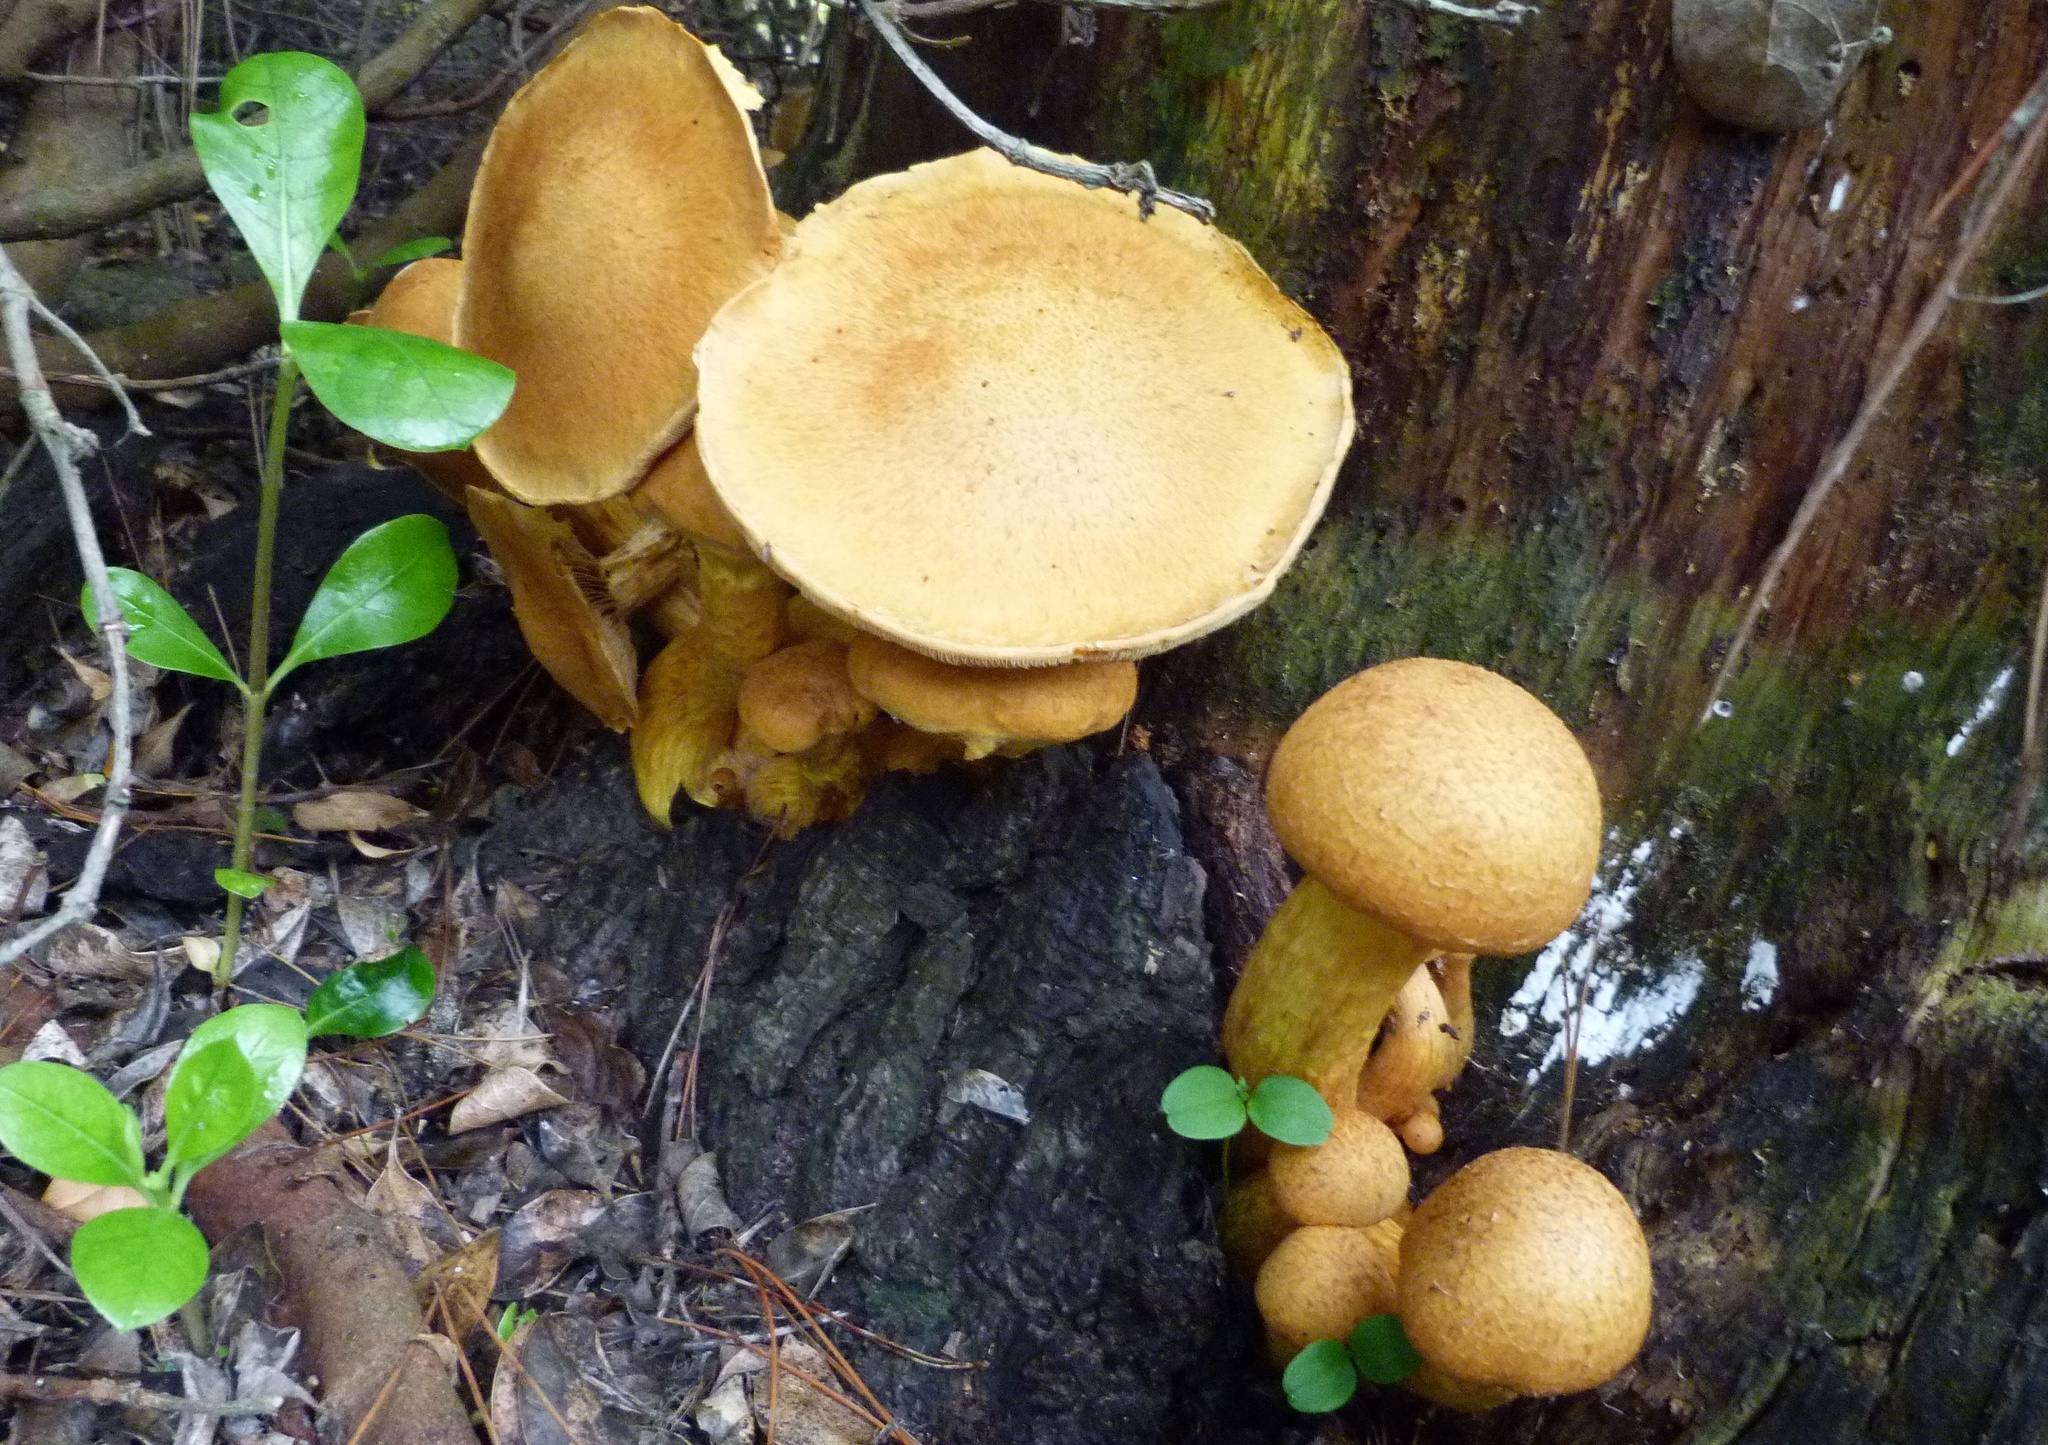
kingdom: Fungi
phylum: Basidiomycota
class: Agaricomycetes
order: Agaricales
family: Hymenogastraceae
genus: Gymnopilus
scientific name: Gymnopilus junonius
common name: Spectacular rustgill
